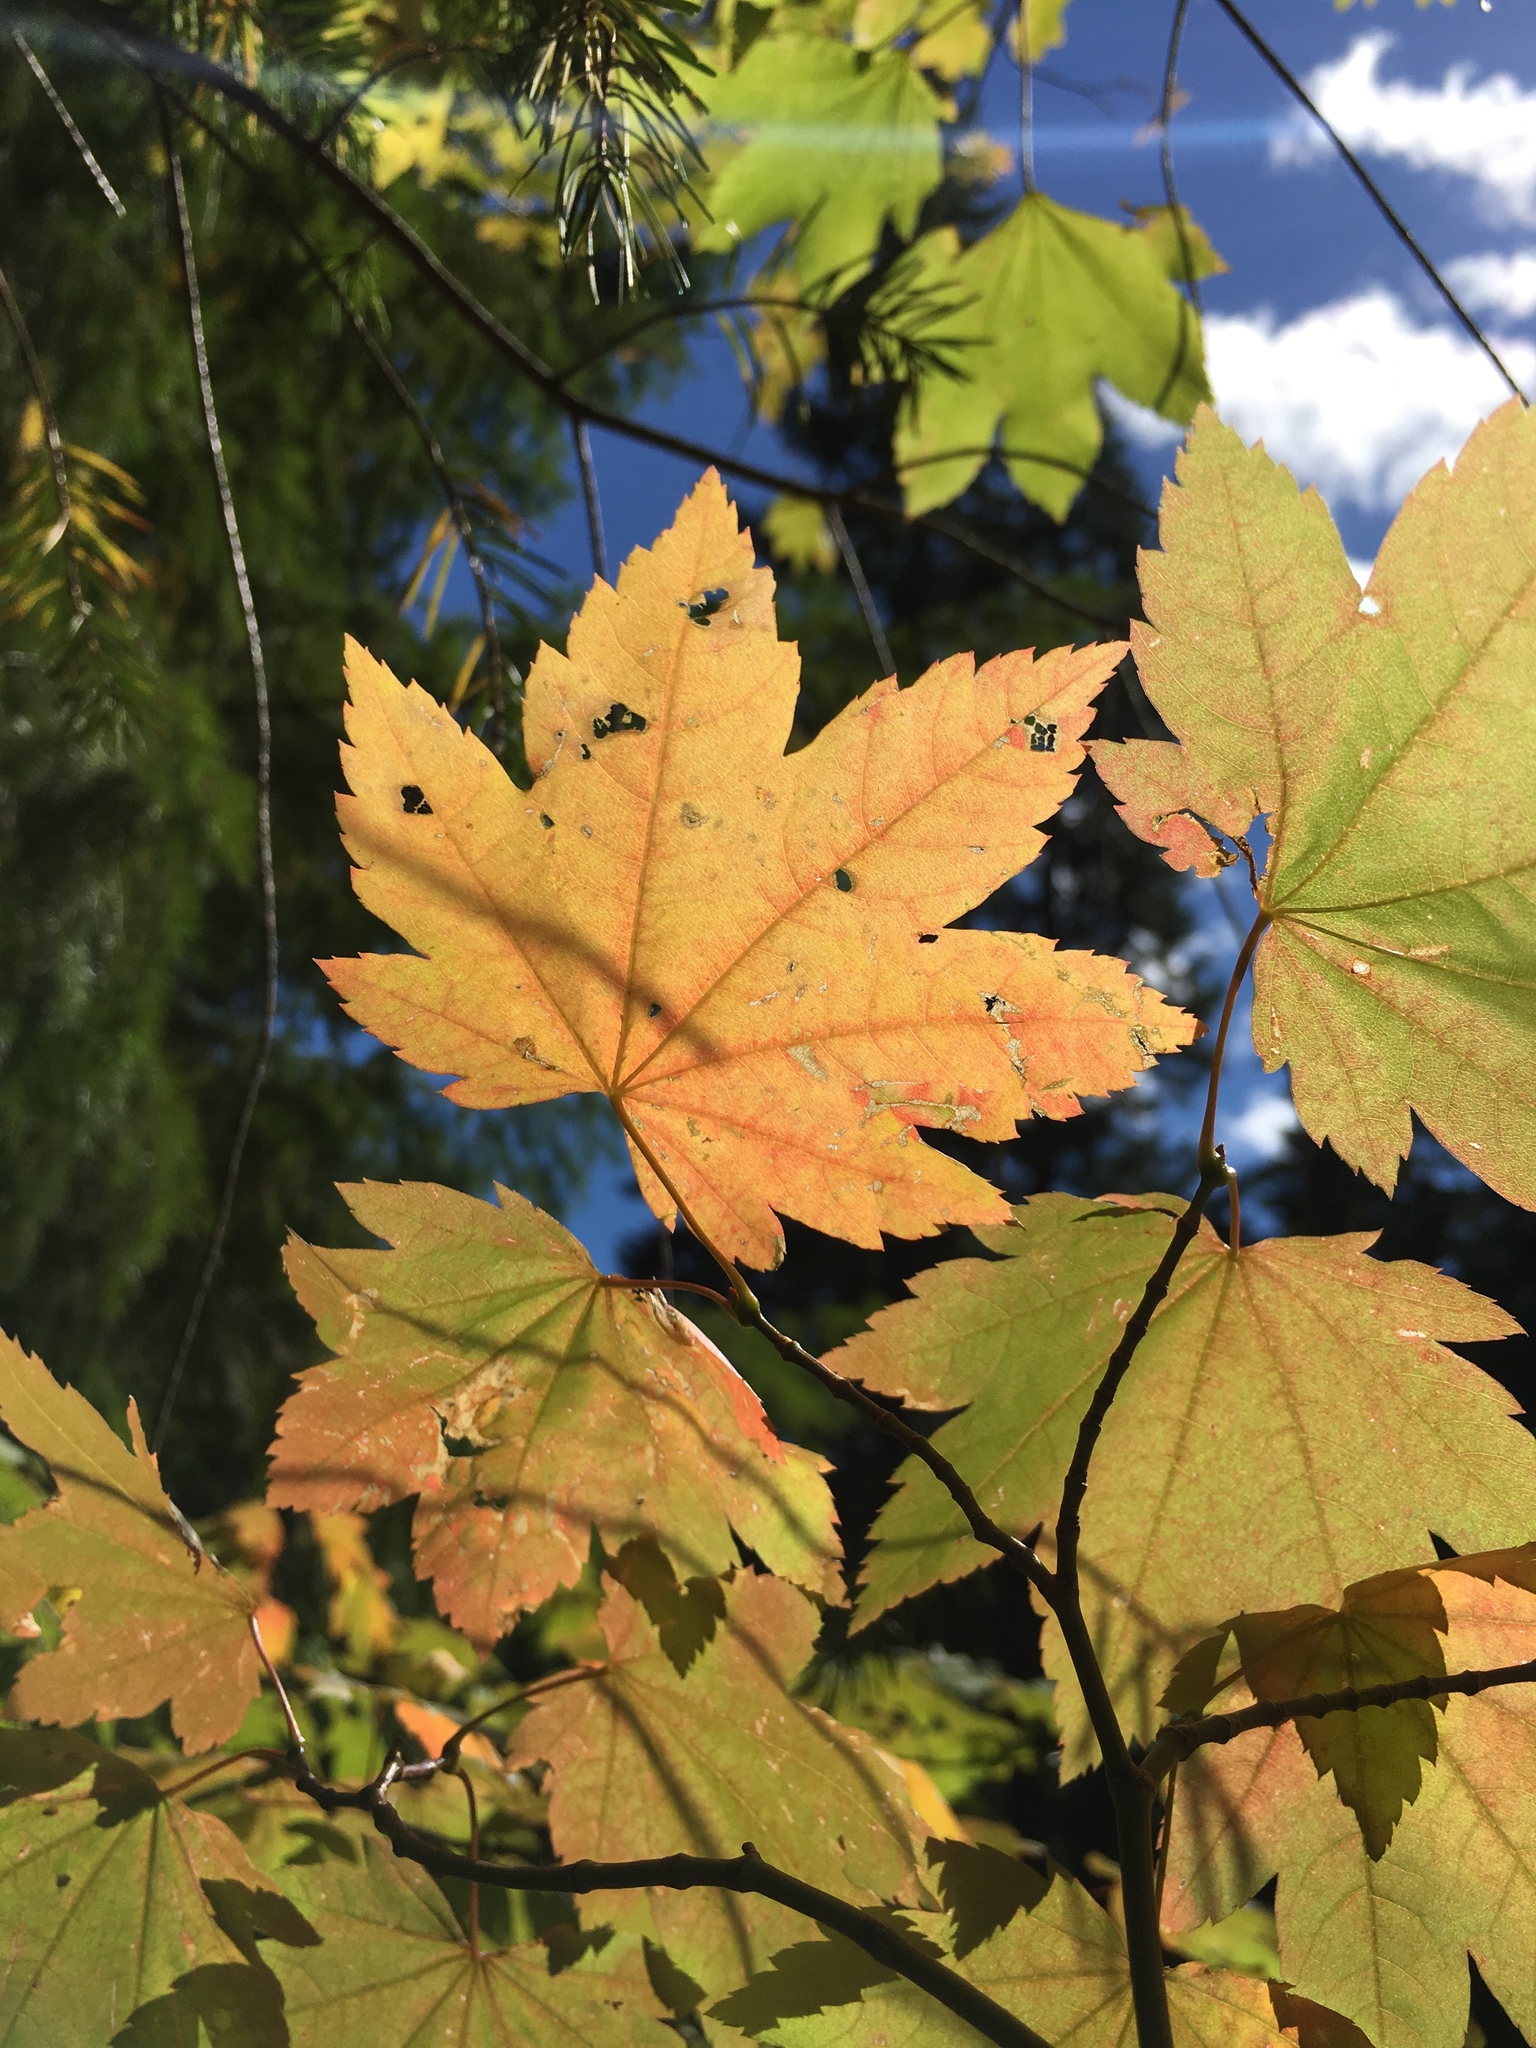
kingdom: Plantae
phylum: Tracheophyta
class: Magnoliopsida
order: Sapindales
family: Sapindaceae
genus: Acer
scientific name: Acer circinatum
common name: Vine maple
